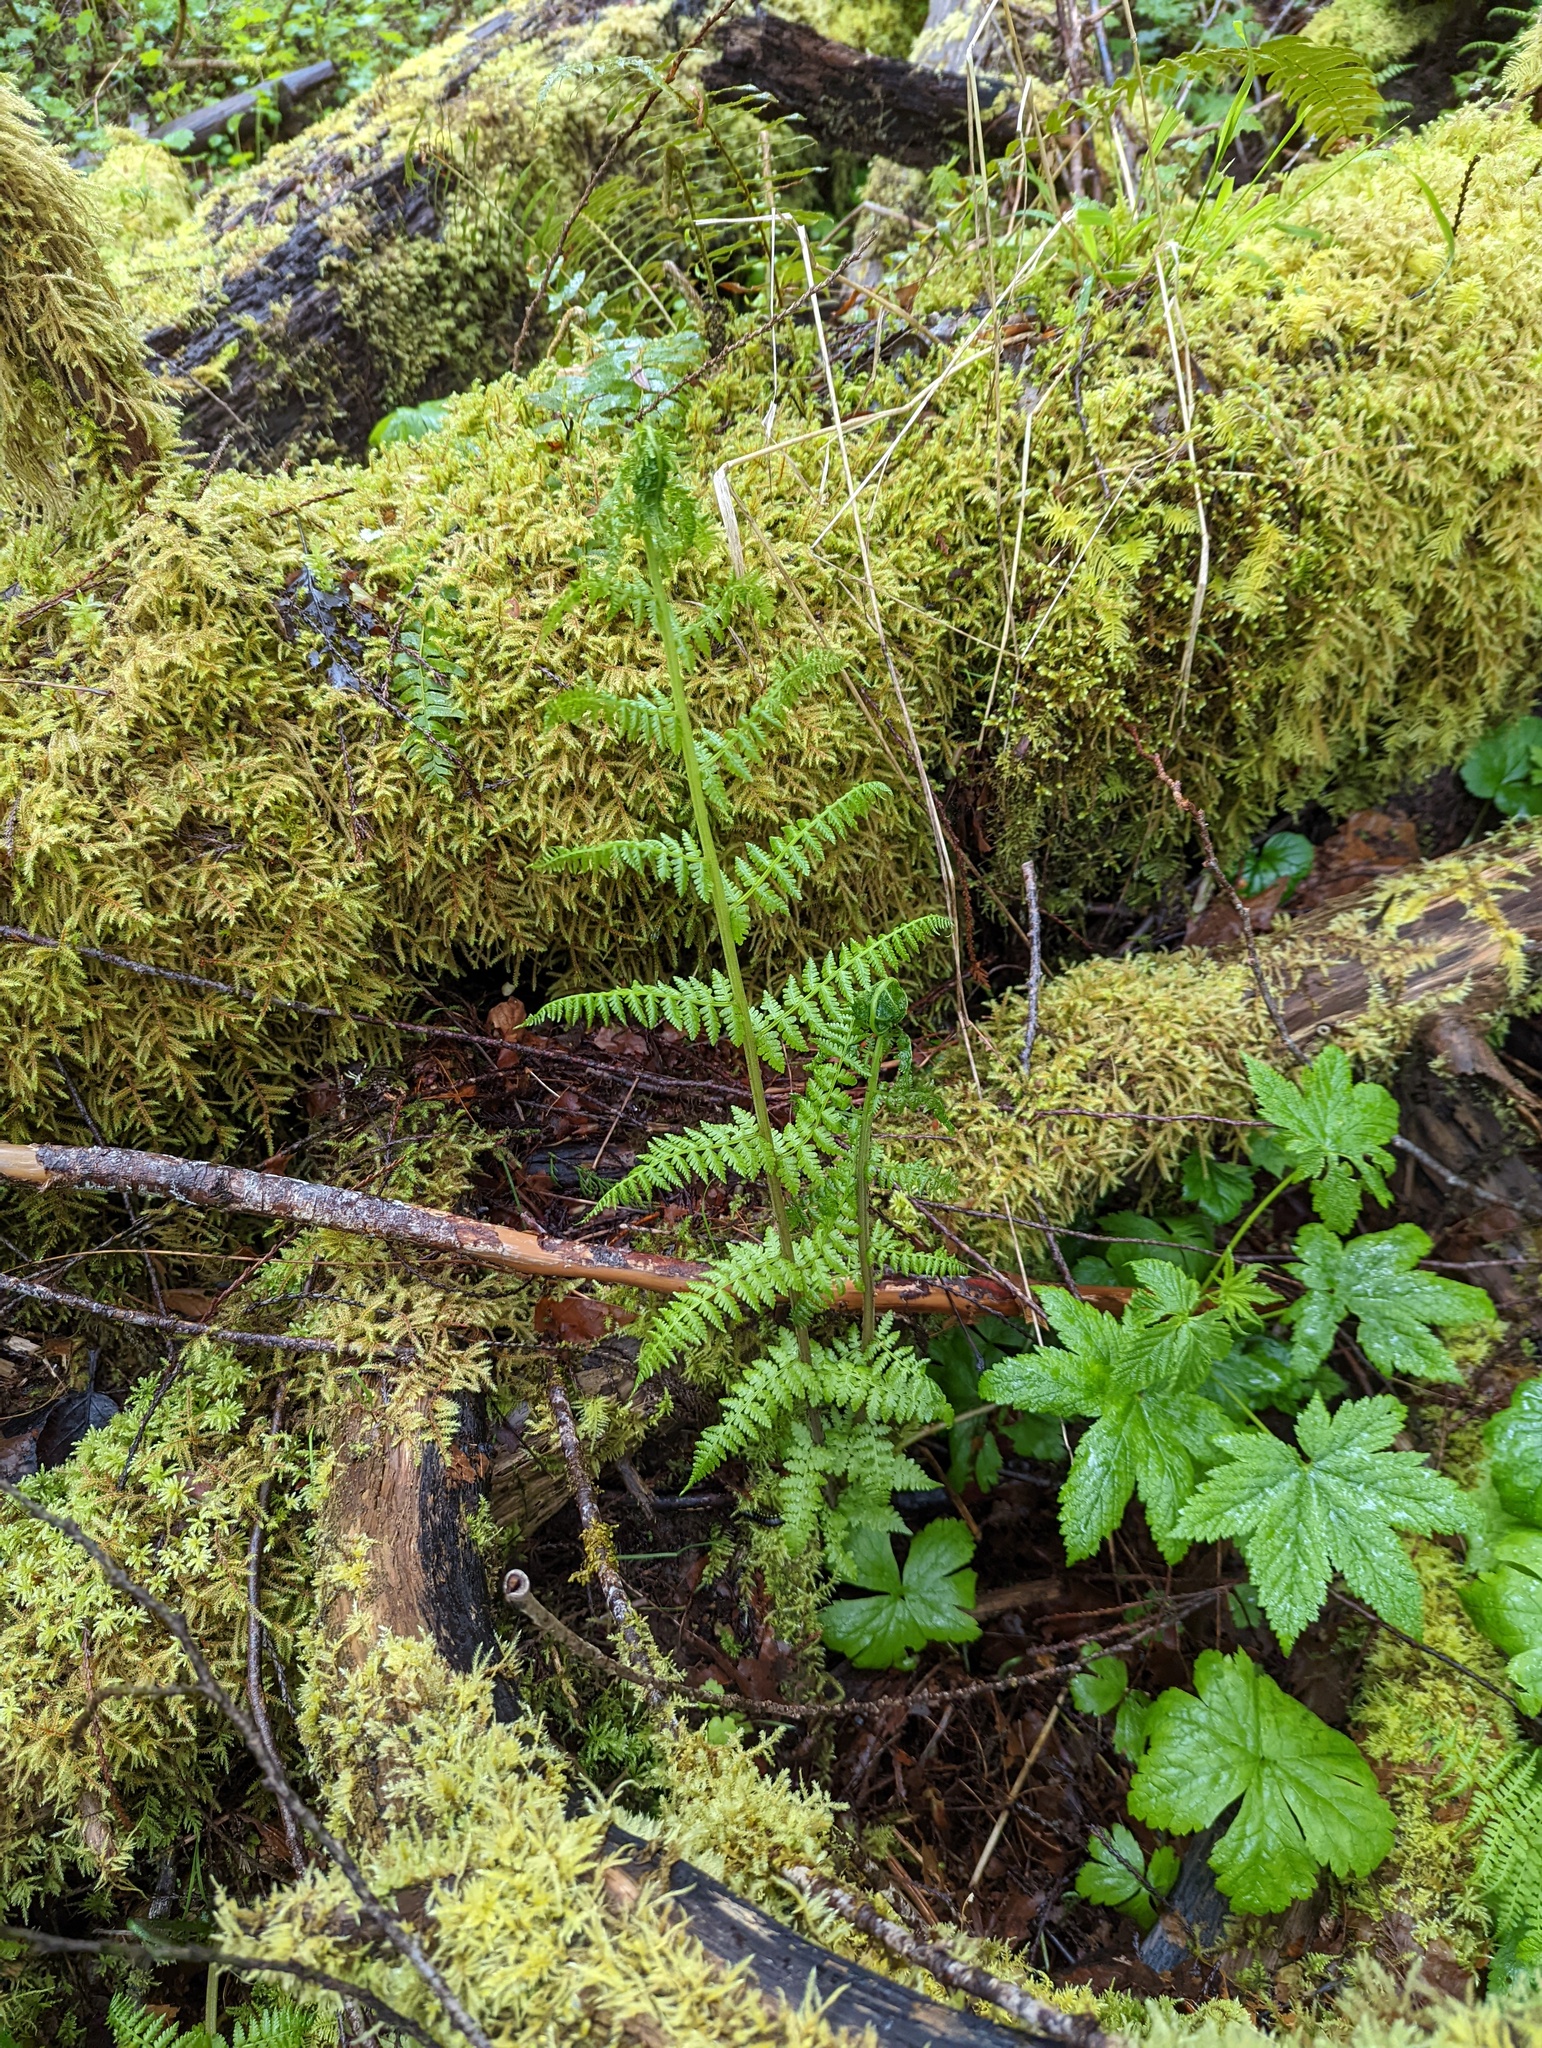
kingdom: Plantae
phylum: Tracheophyta
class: Polypodiopsida
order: Polypodiales
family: Athyriaceae
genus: Athyrium
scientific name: Athyrium filix-femina
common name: Lady fern
